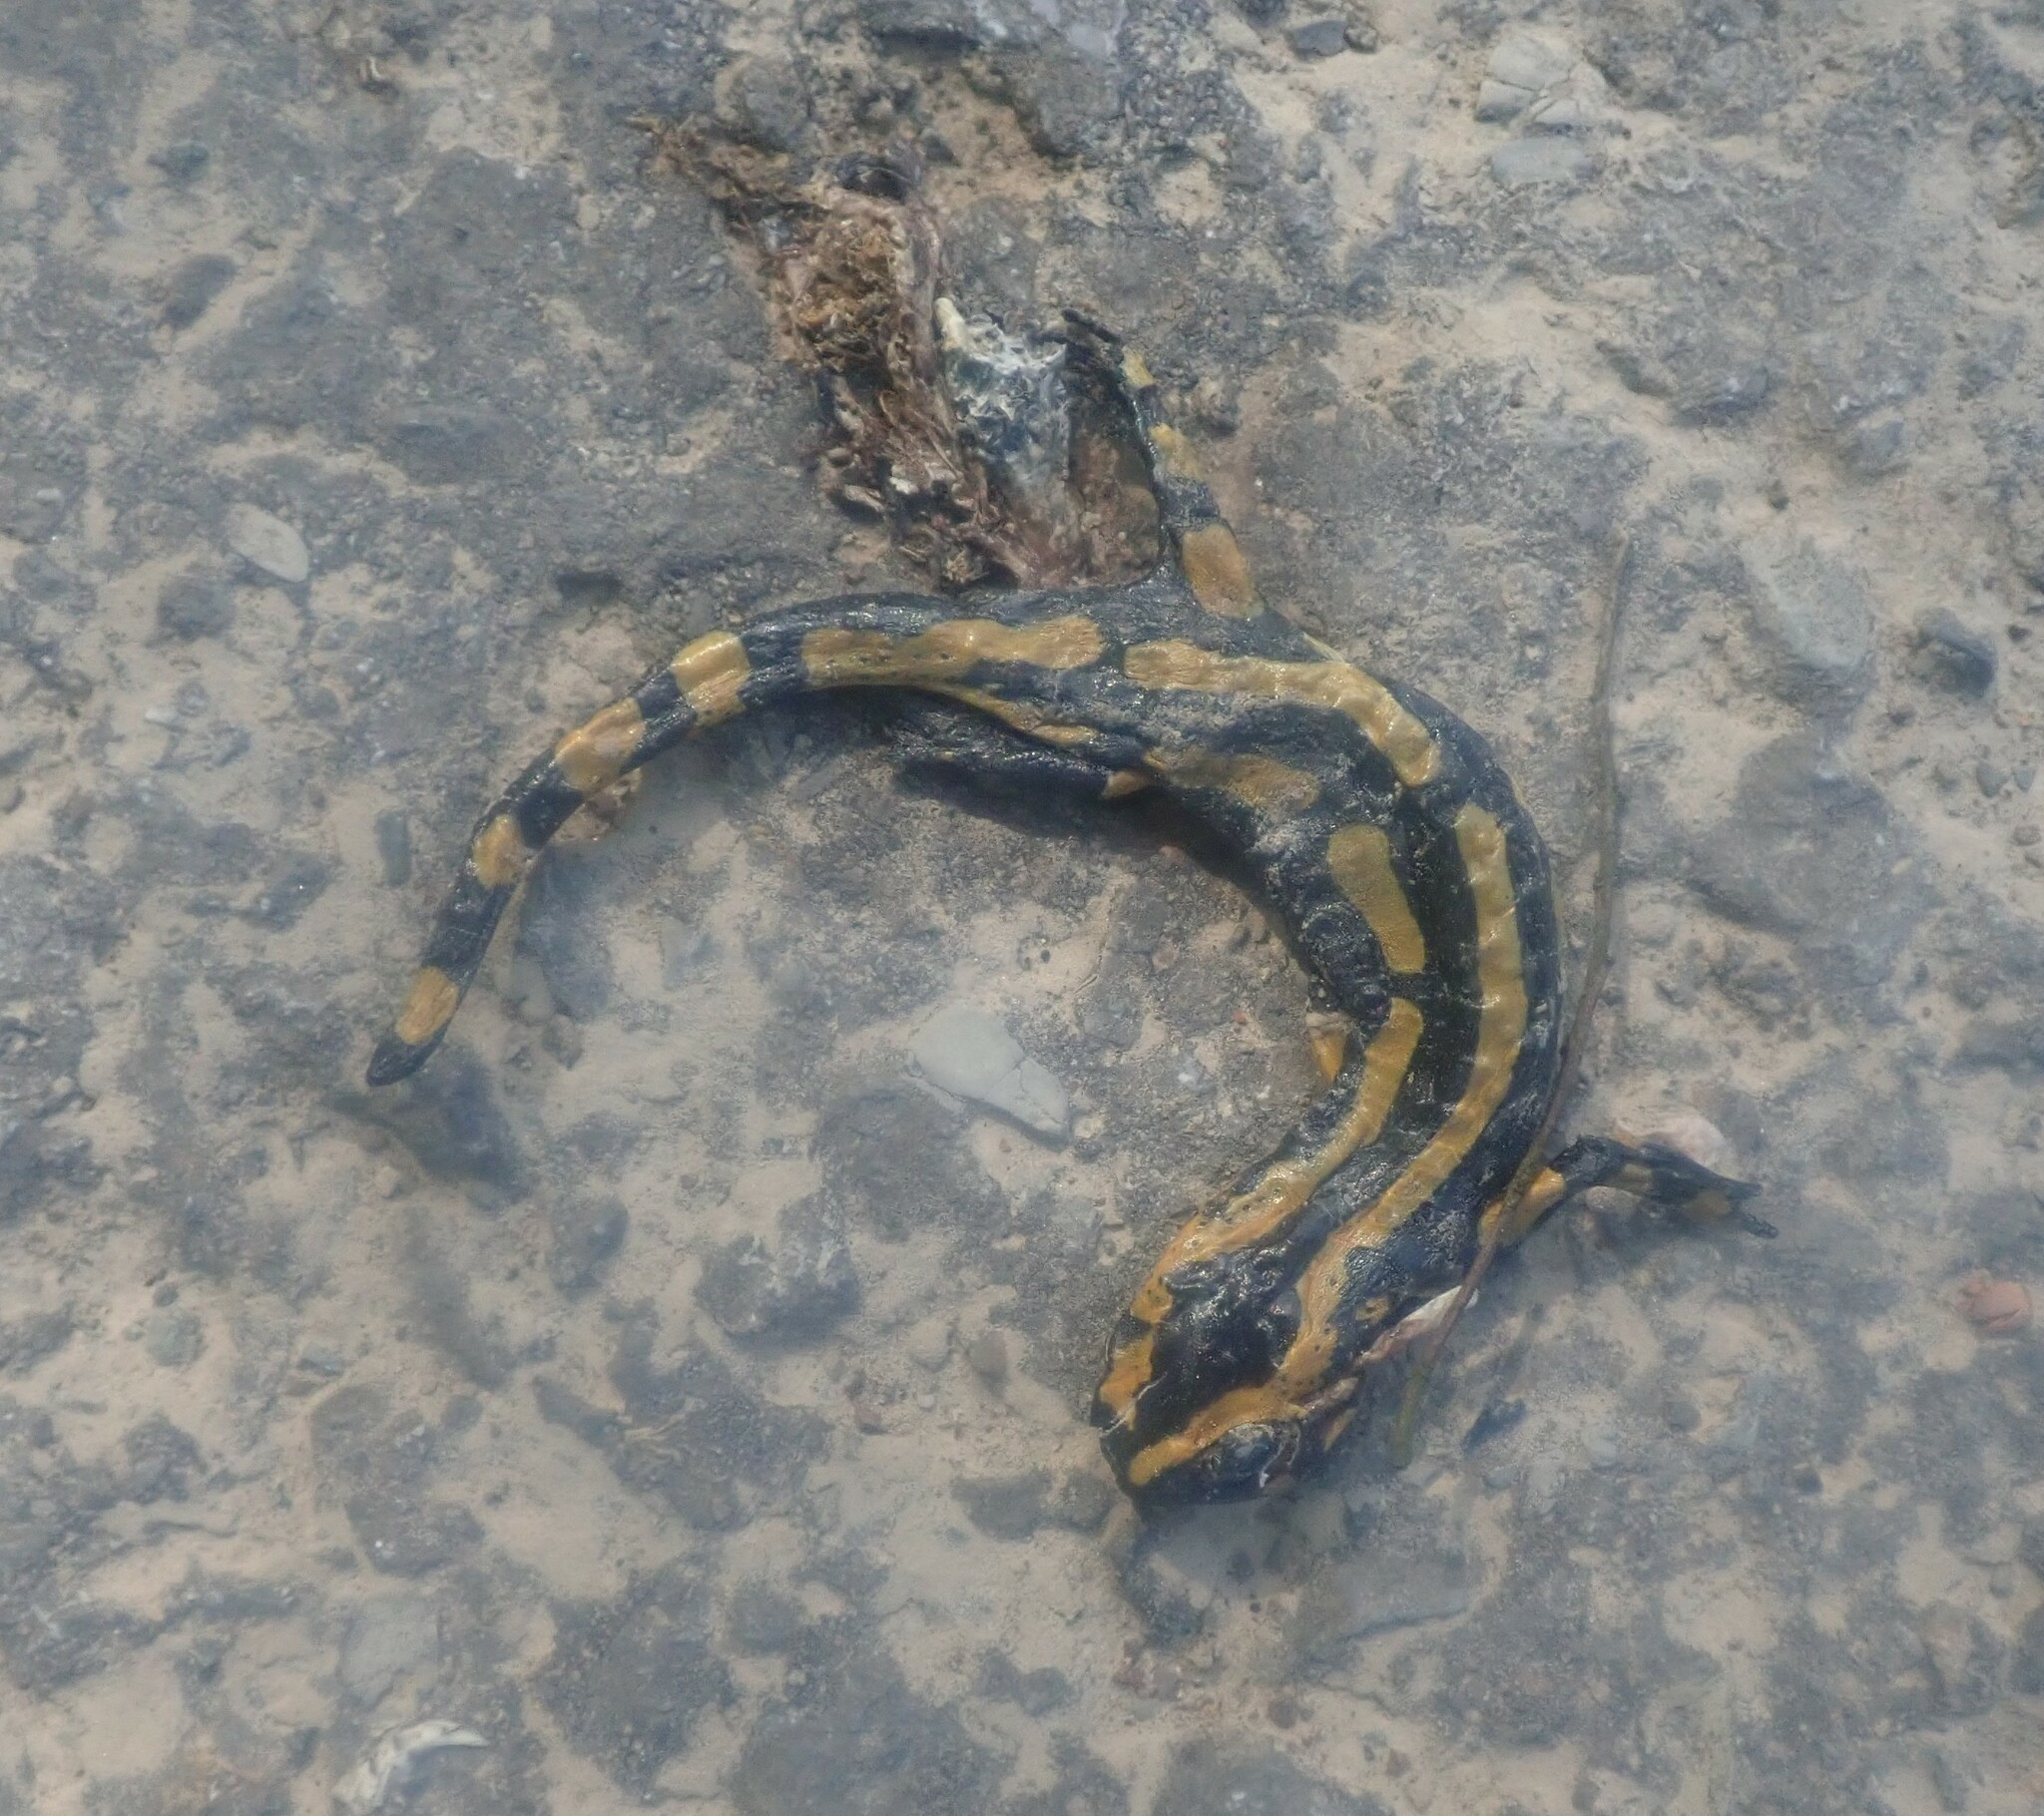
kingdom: Animalia
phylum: Chordata
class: Amphibia
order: Caudata
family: Salamandridae
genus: Salamandra
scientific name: Salamandra salamandra
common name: Fire salamander
